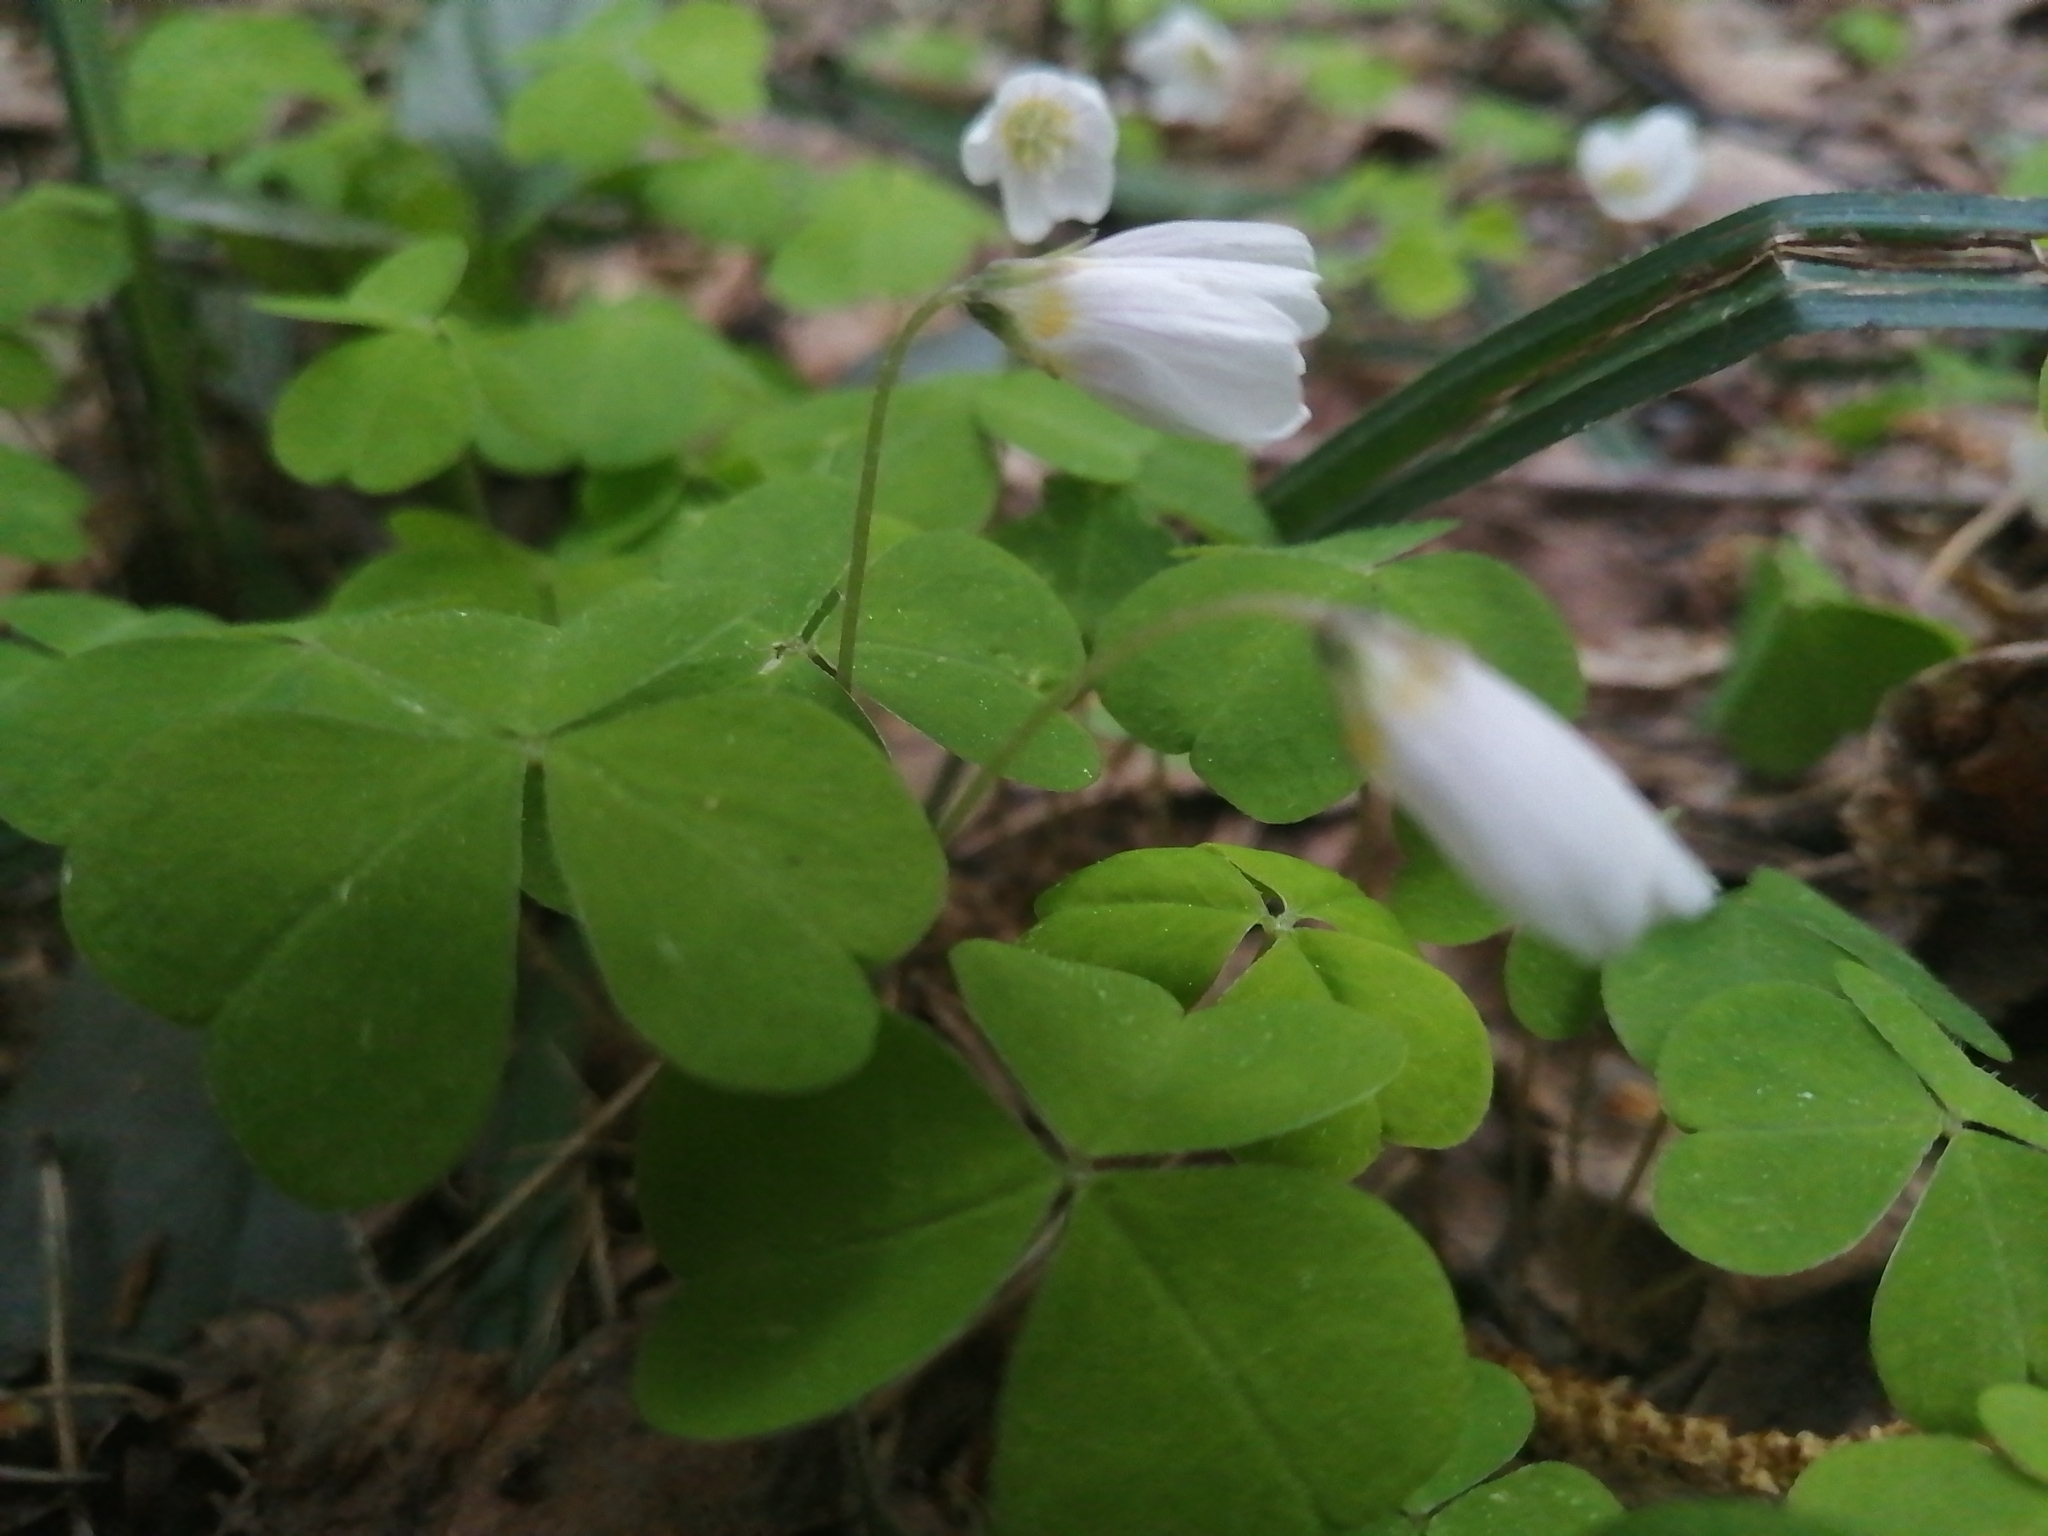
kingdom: Plantae
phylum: Tracheophyta
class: Magnoliopsida
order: Oxalidales
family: Oxalidaceae
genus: Oxalis
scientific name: Oxalis acetosella
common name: Wood-sorrel
